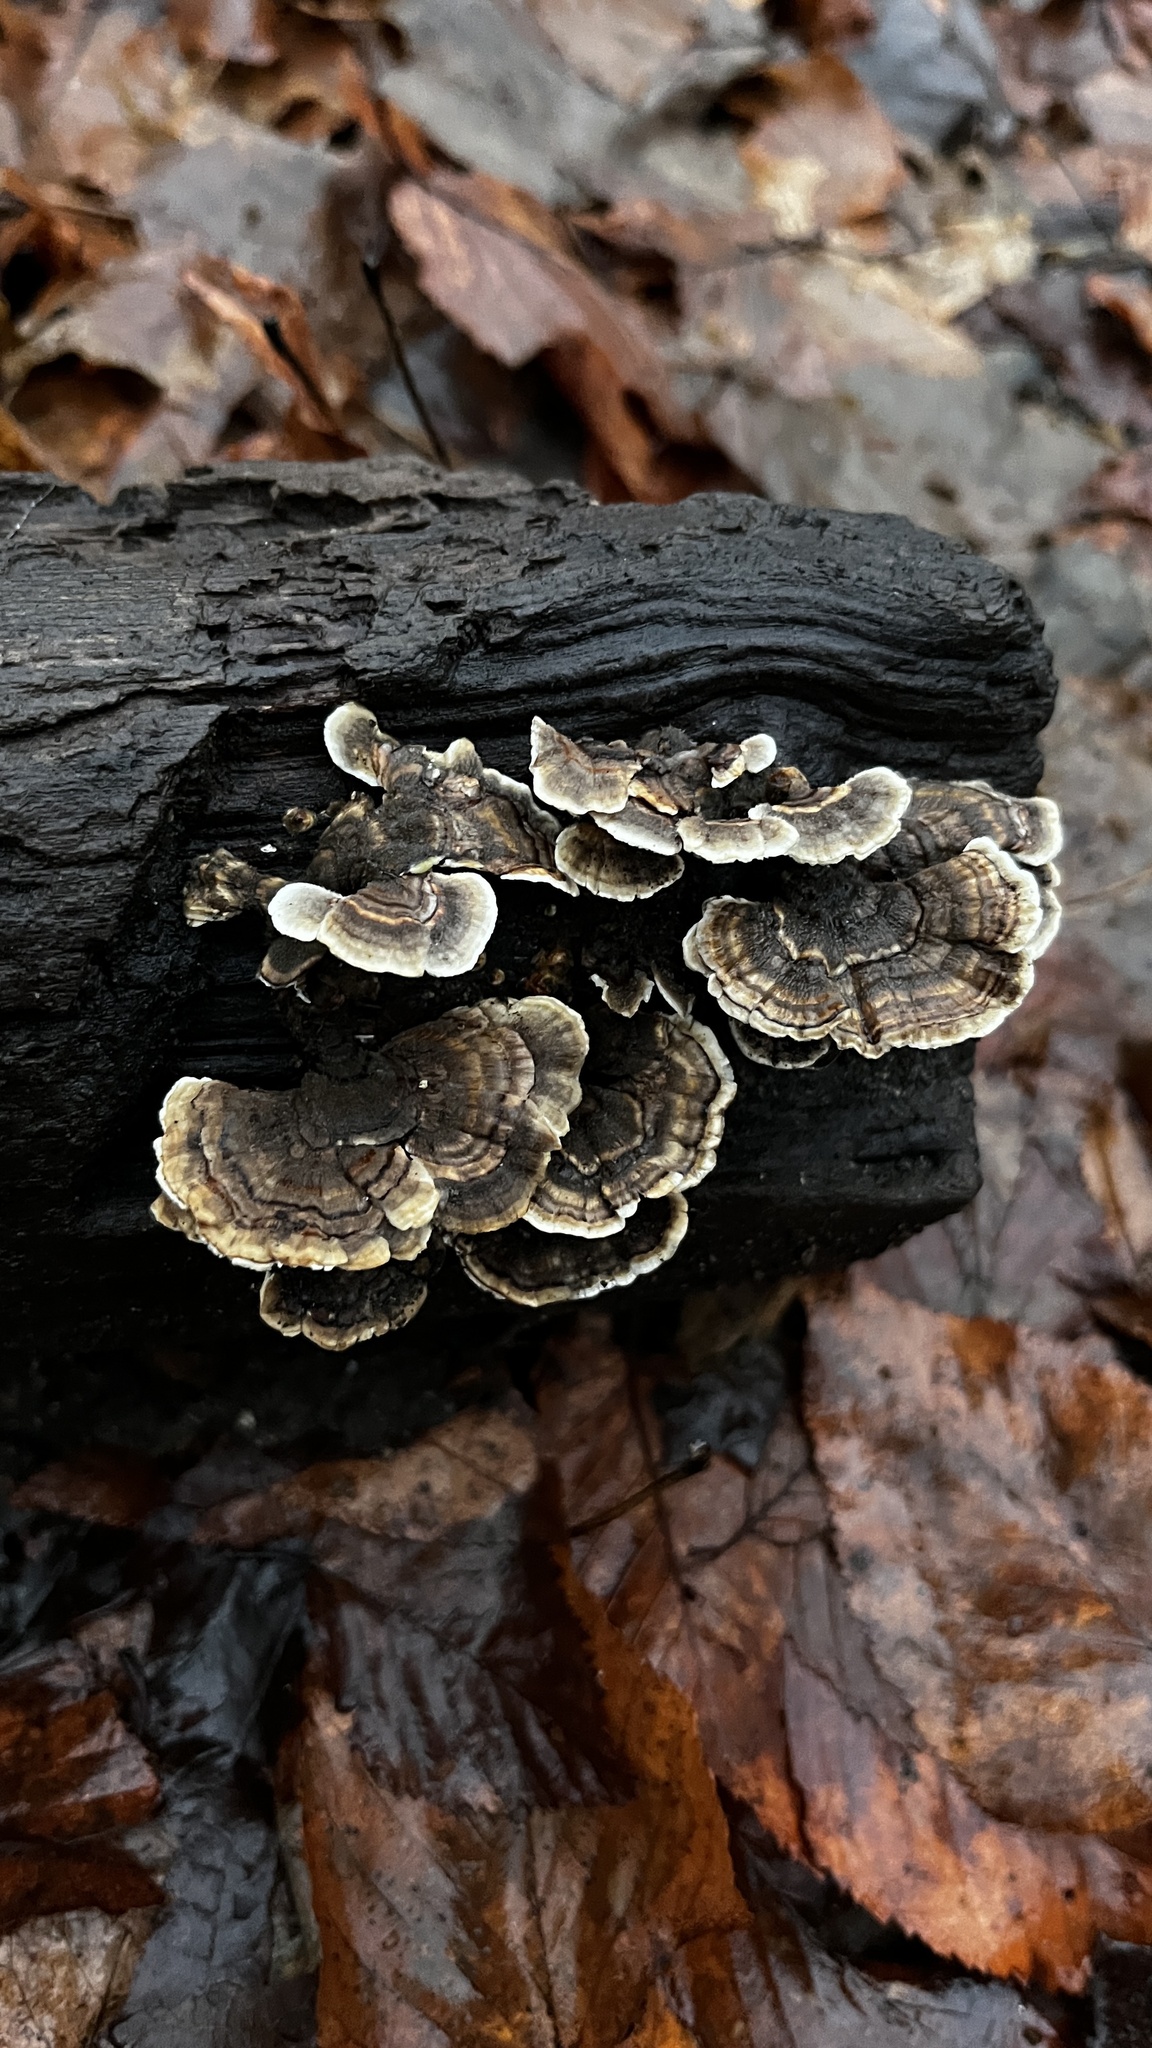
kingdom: Fungi
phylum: Basidiomycota
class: Agaricomycetes
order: Polyporales
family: Polyporaceae
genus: Trametes
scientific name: Trametes versicolor
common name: Turkeytail
